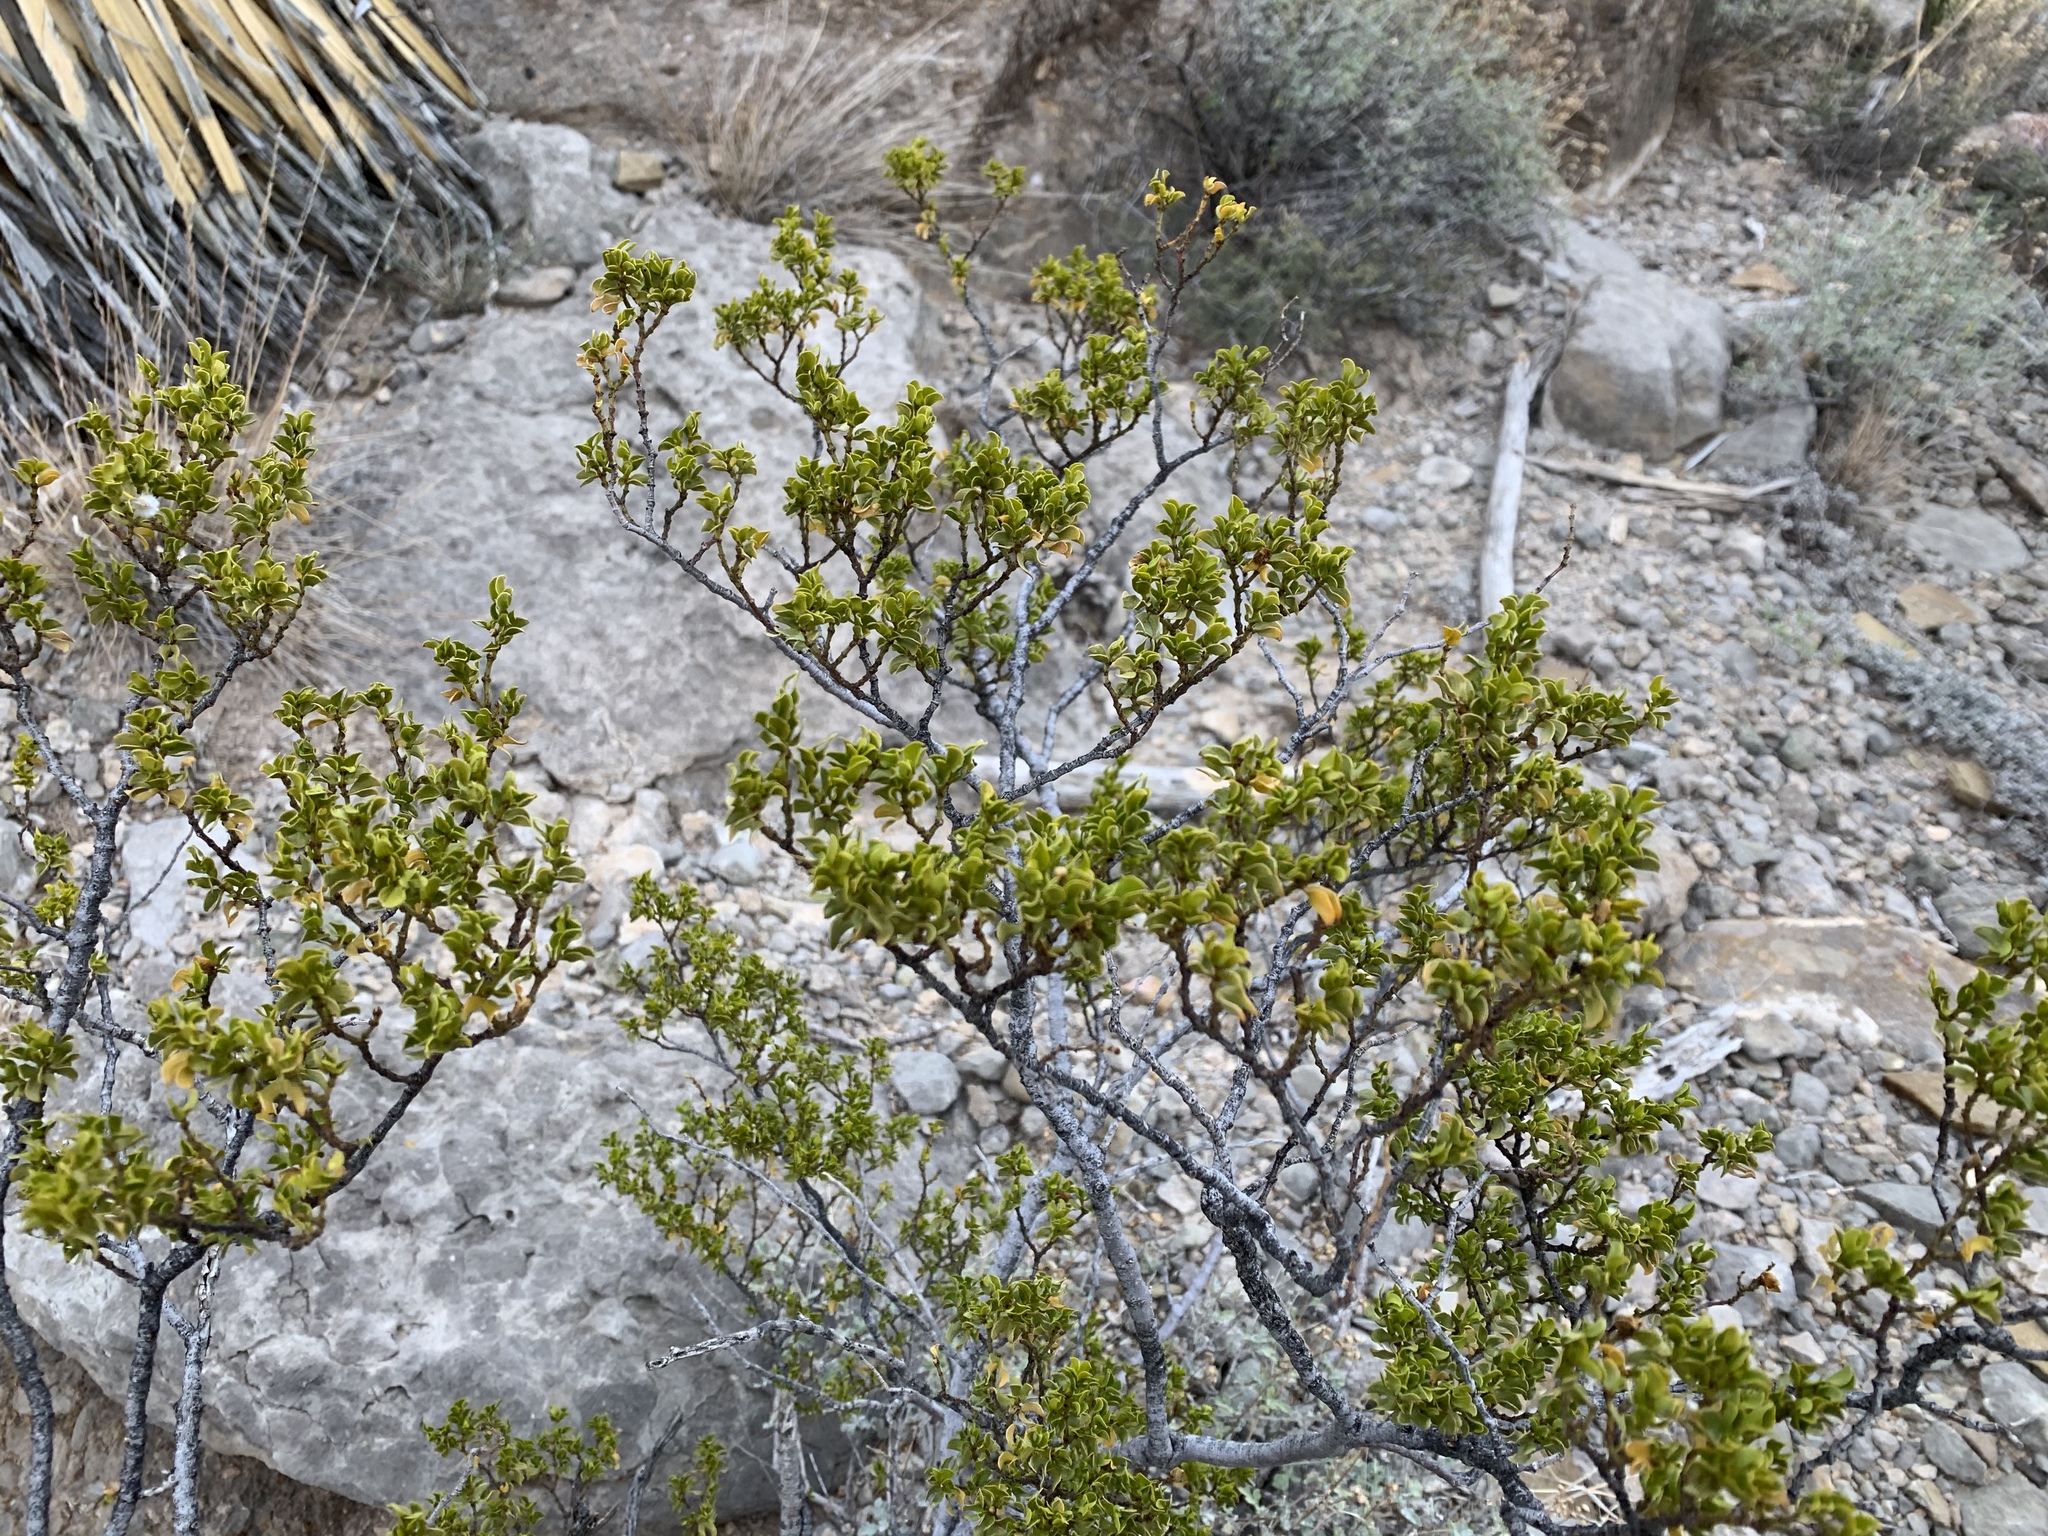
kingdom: Plantae
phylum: Tracheophyta
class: Magnoliopsida
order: Zygophyllales
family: Zygophyllaceae
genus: Larrea
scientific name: Larrea tridentata
